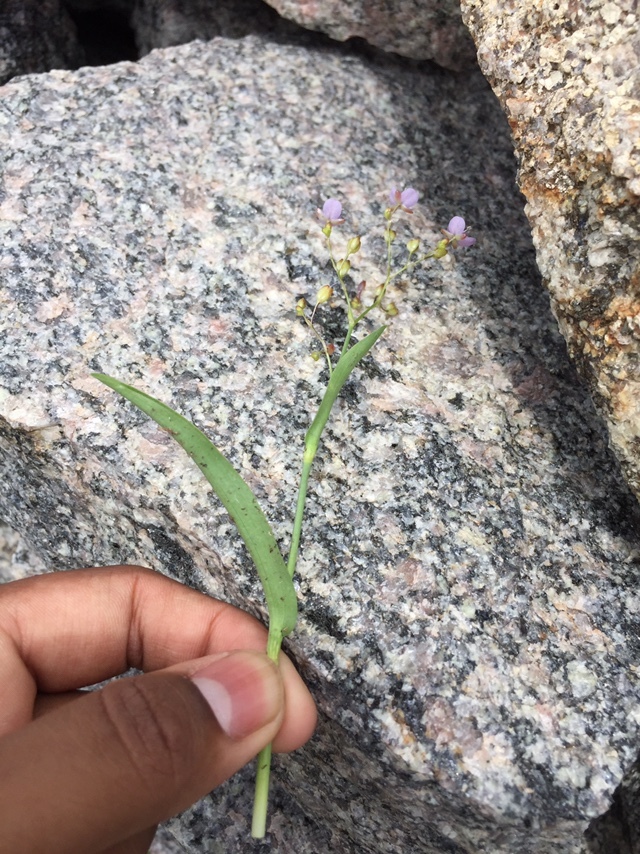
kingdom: Plantae
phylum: Tracheophyta
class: Liliopsida
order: Commelinales
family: Commelinaceae
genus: Murdannia
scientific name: Murdannia nudiflora
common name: Nakedstem dewflower
